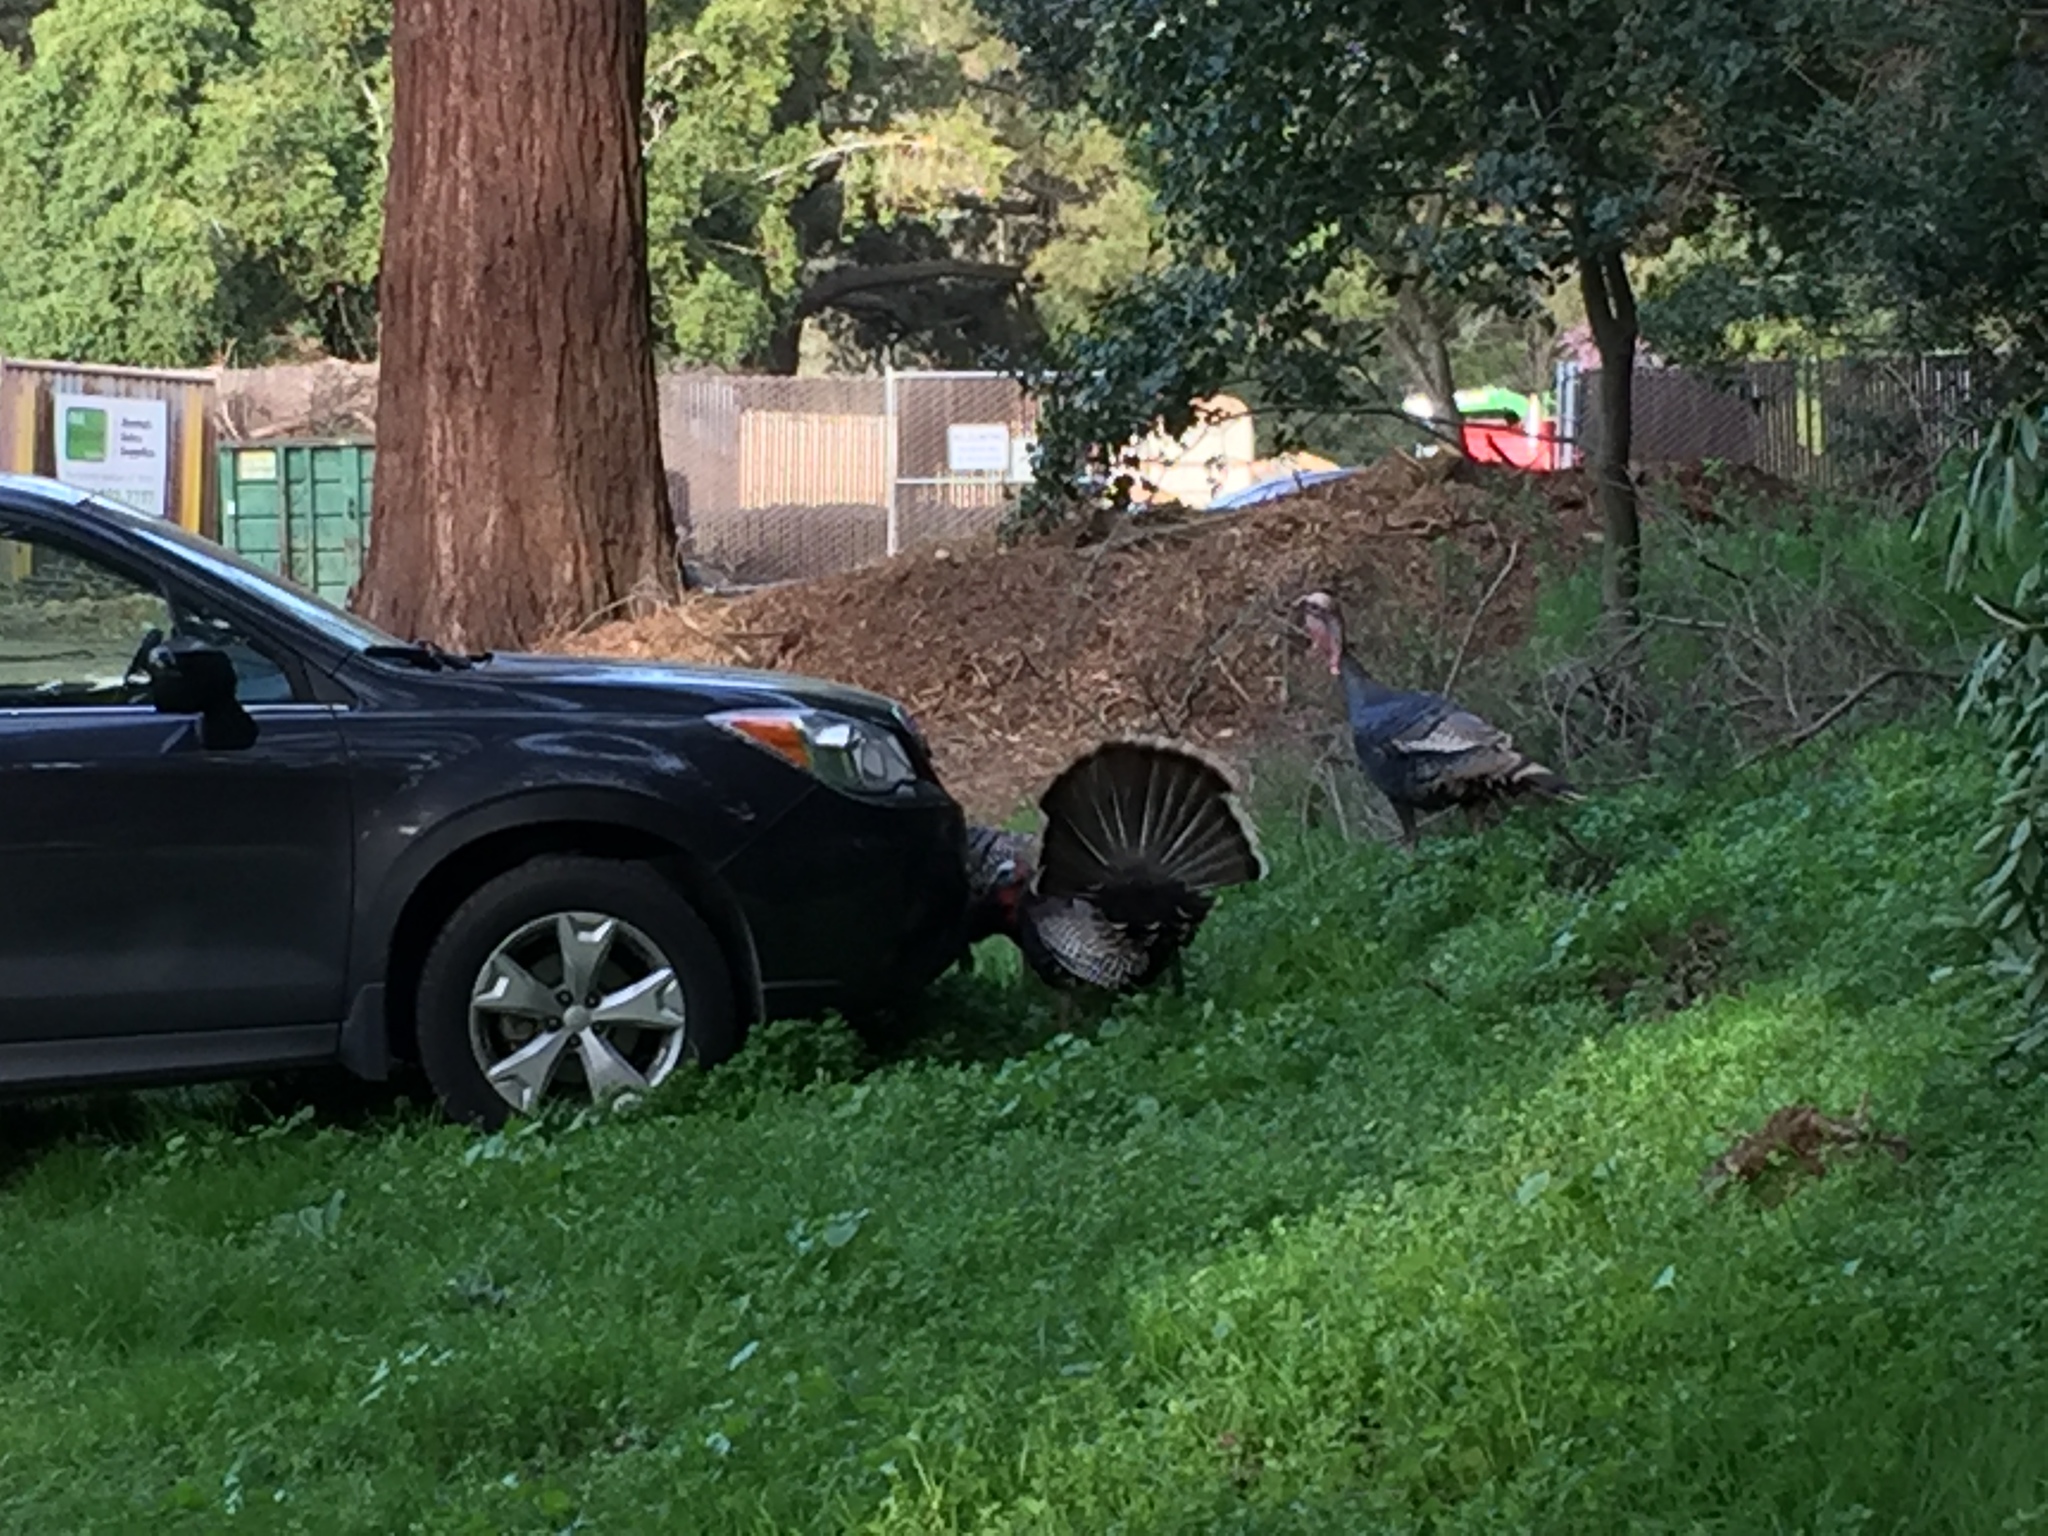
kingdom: Animalia
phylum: Chordata
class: Aves
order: Galliformes
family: Phasianidae
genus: Meleagris
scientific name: Meleagris gallopavo
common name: Wild turkey
